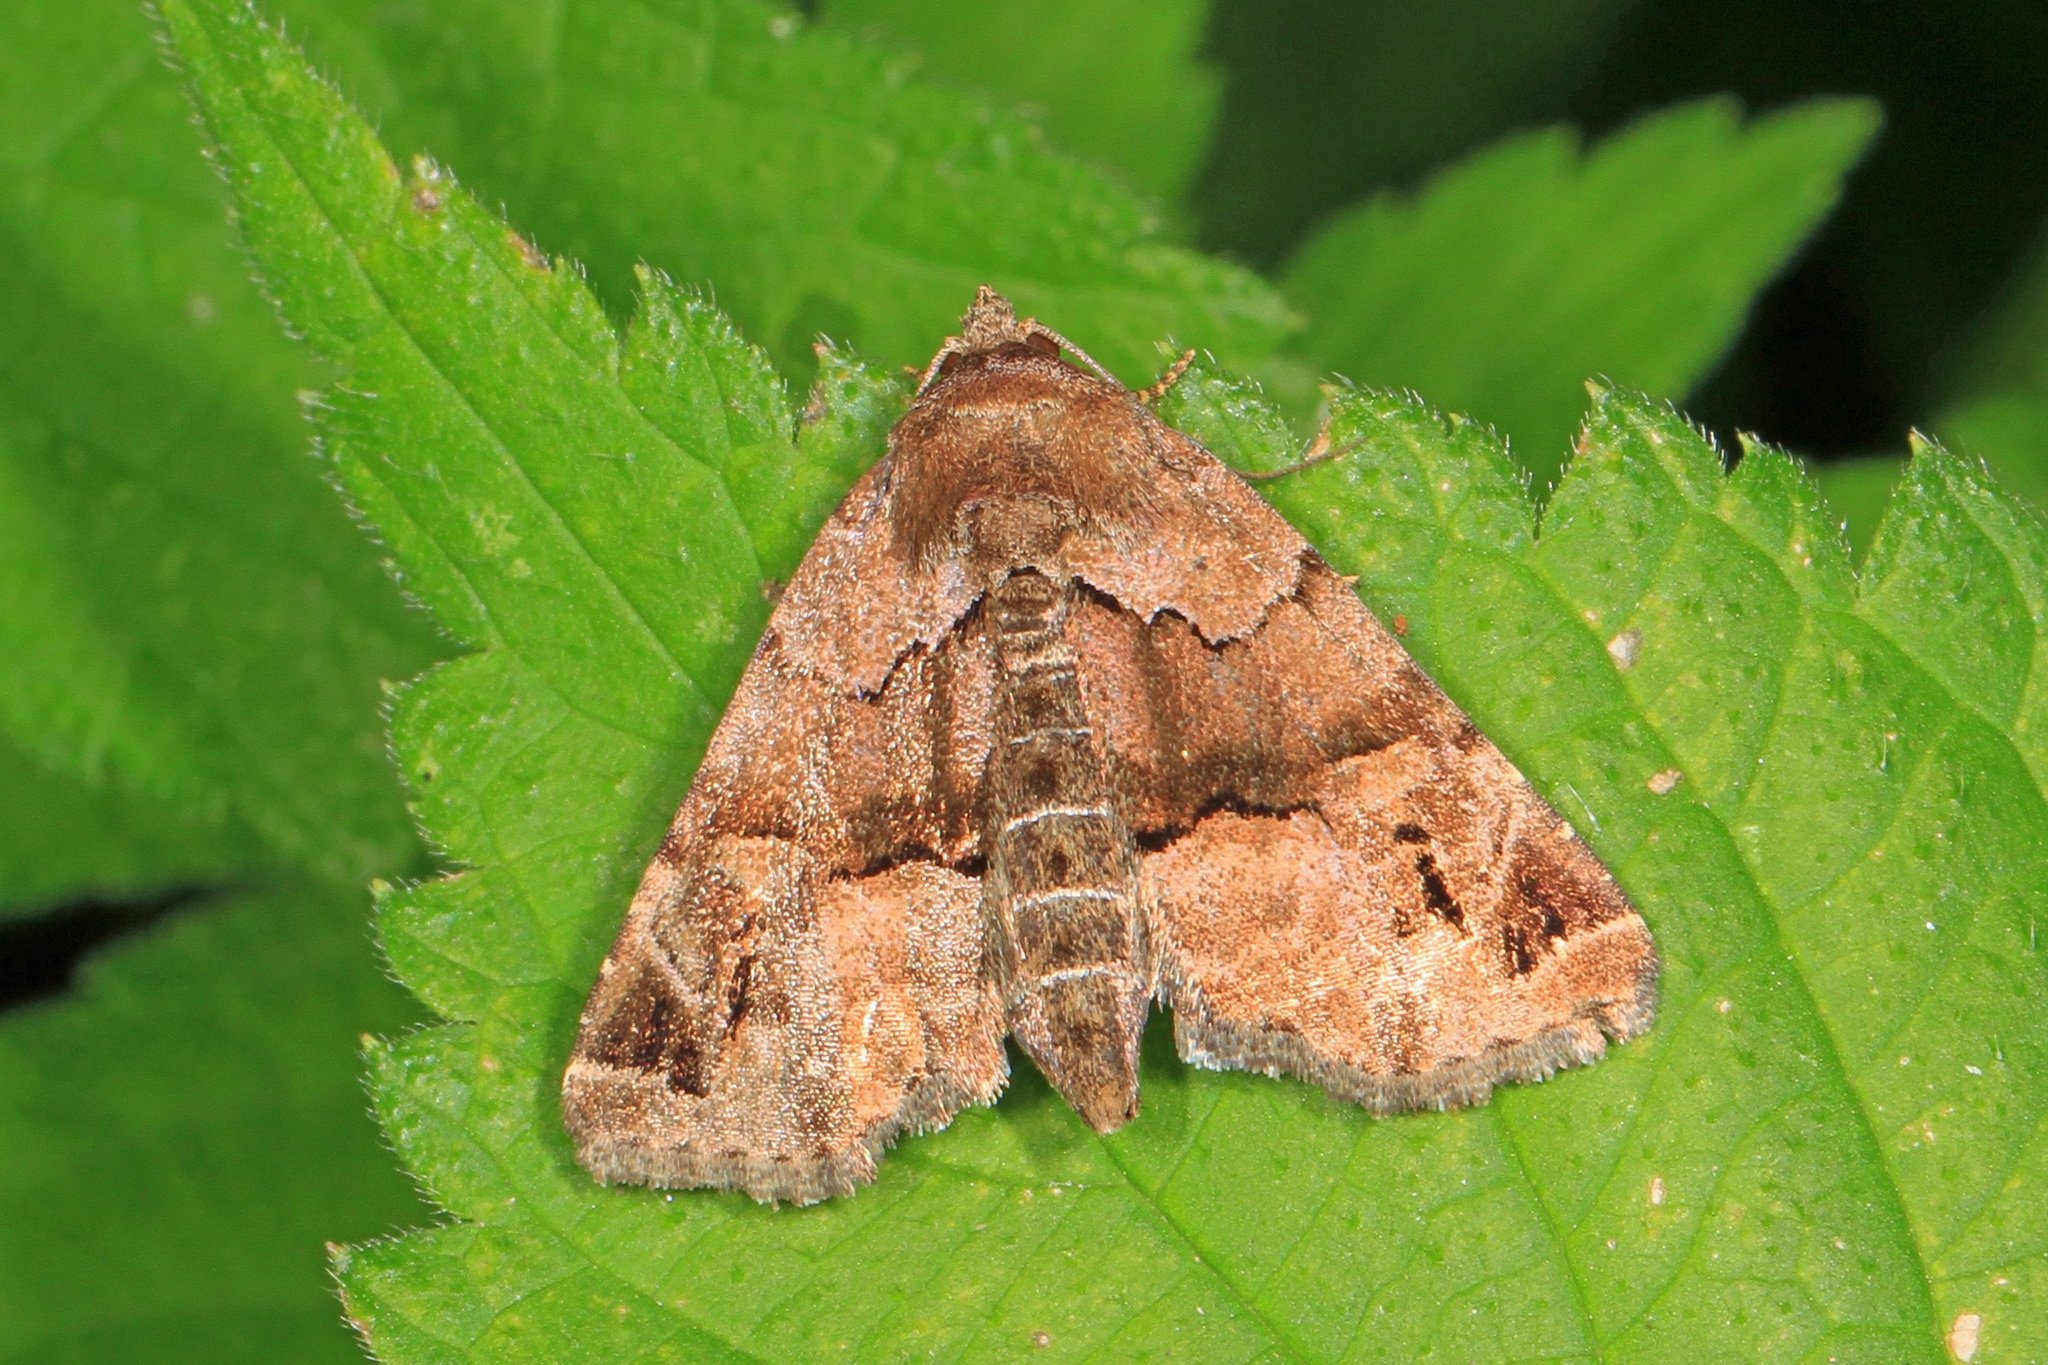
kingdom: Animalia
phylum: Arthropoda
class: Insecta
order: Lepidoptera
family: Noctuidae
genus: Niphonyx
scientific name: Niphonyx segregata
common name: Hops angleshade moth
